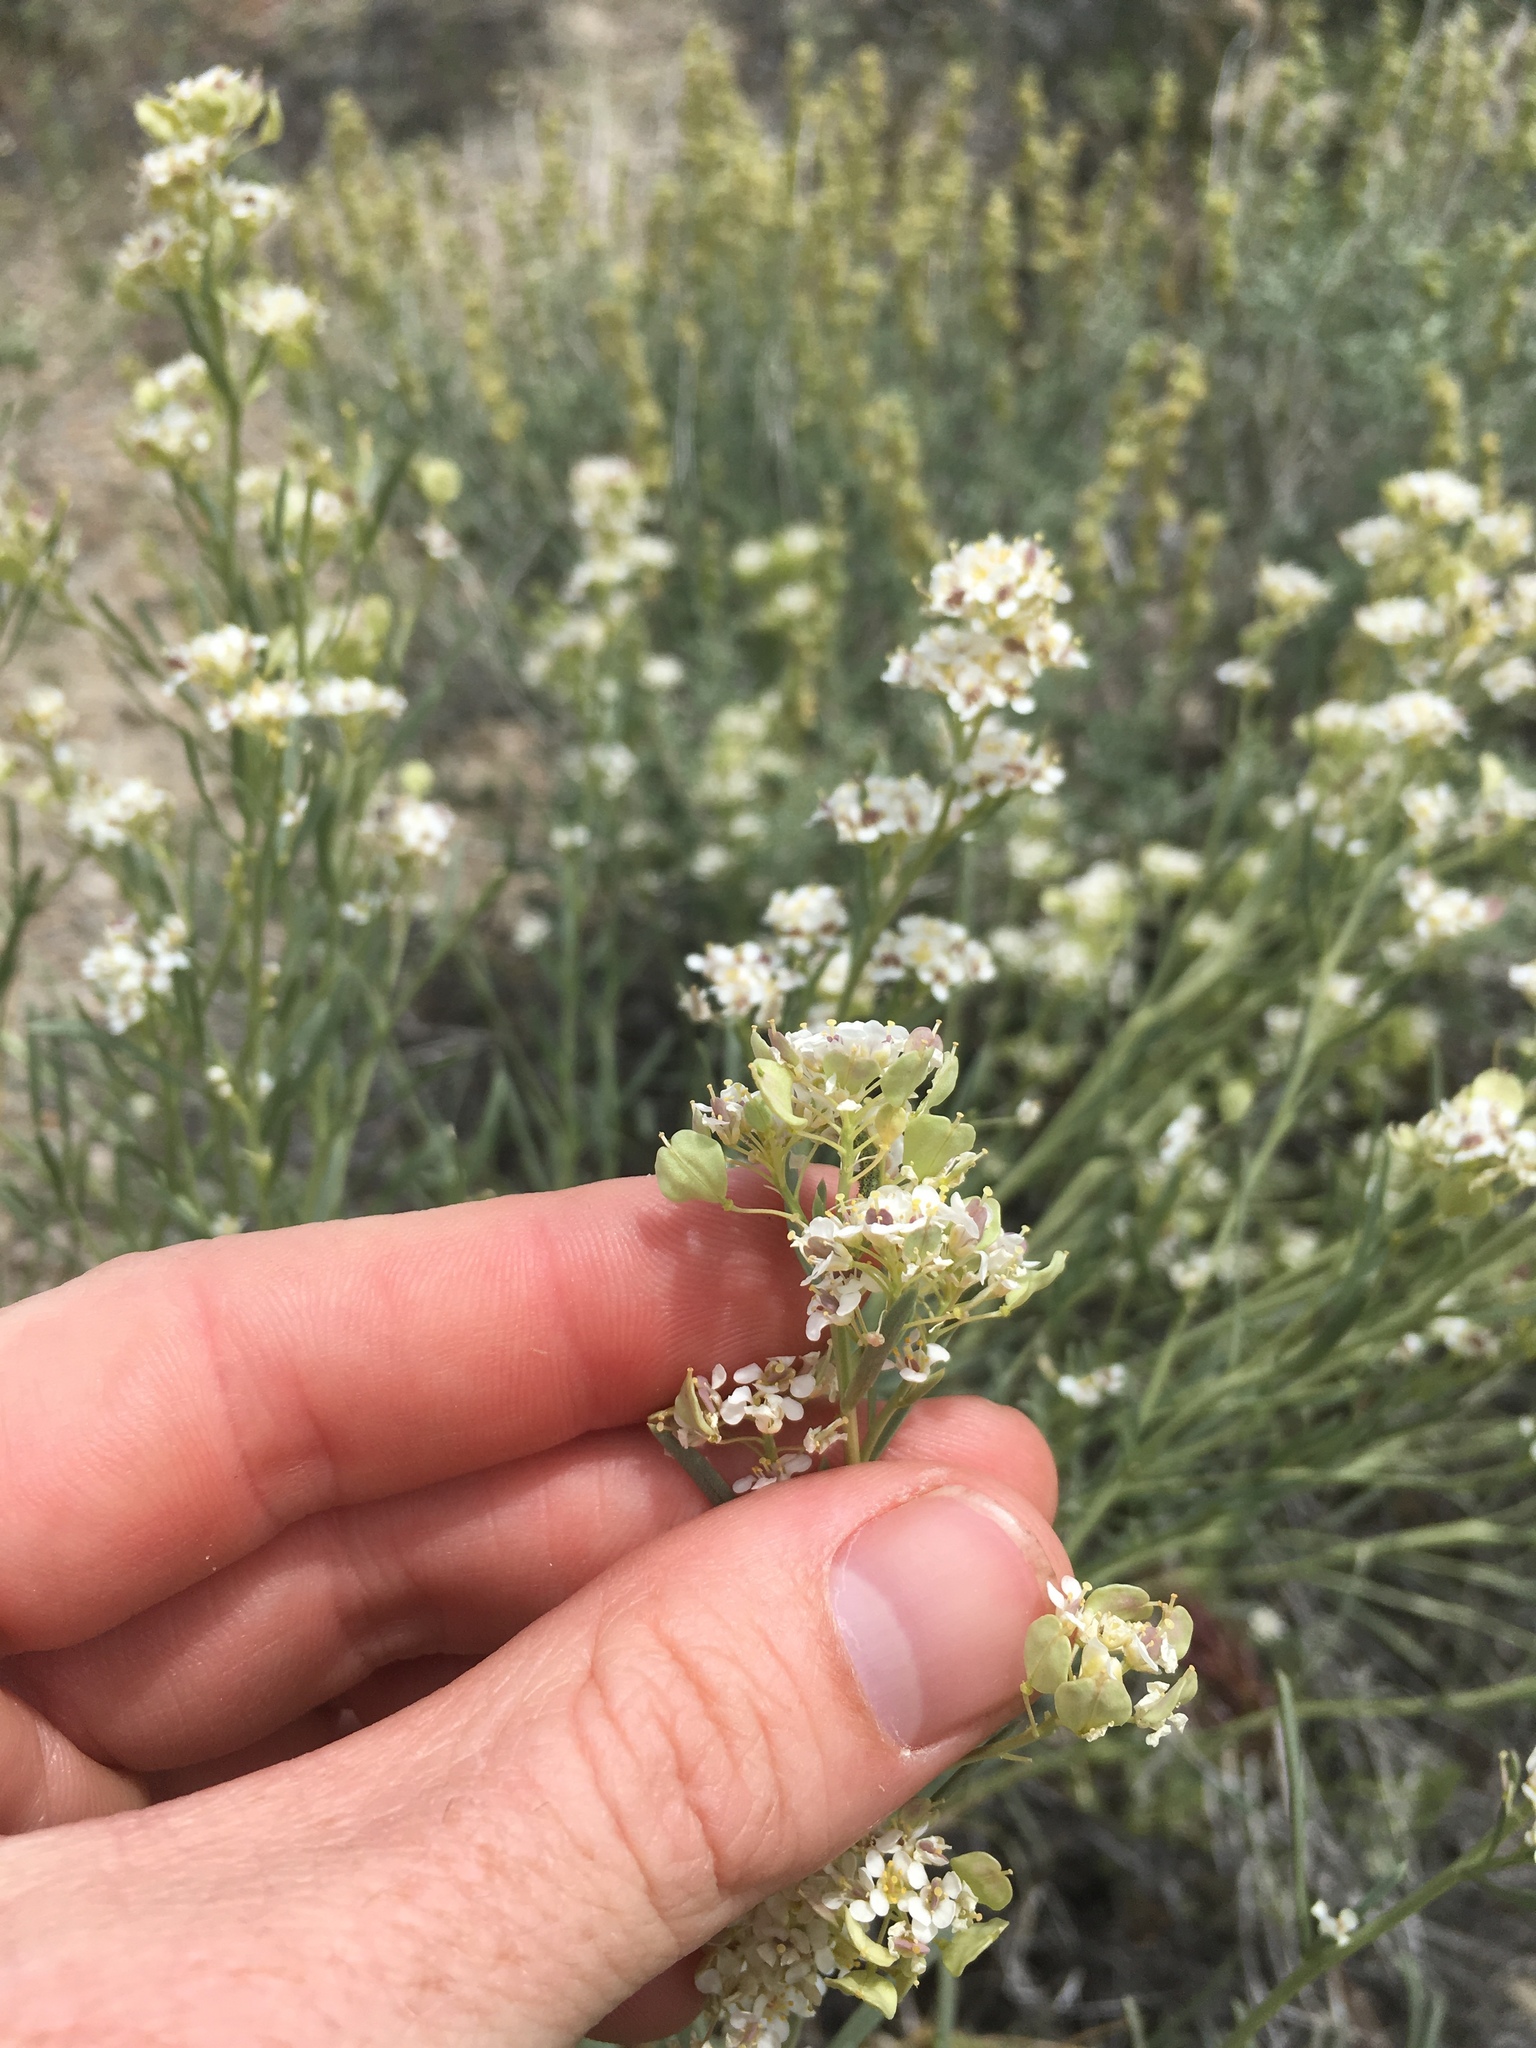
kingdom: Plantae
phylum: Tracheophyta
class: Magnoliopsida
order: Brassicales
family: Brassicaceae
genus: Lepidium
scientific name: Lepidium fremontii
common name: Fremont's pepperwort
